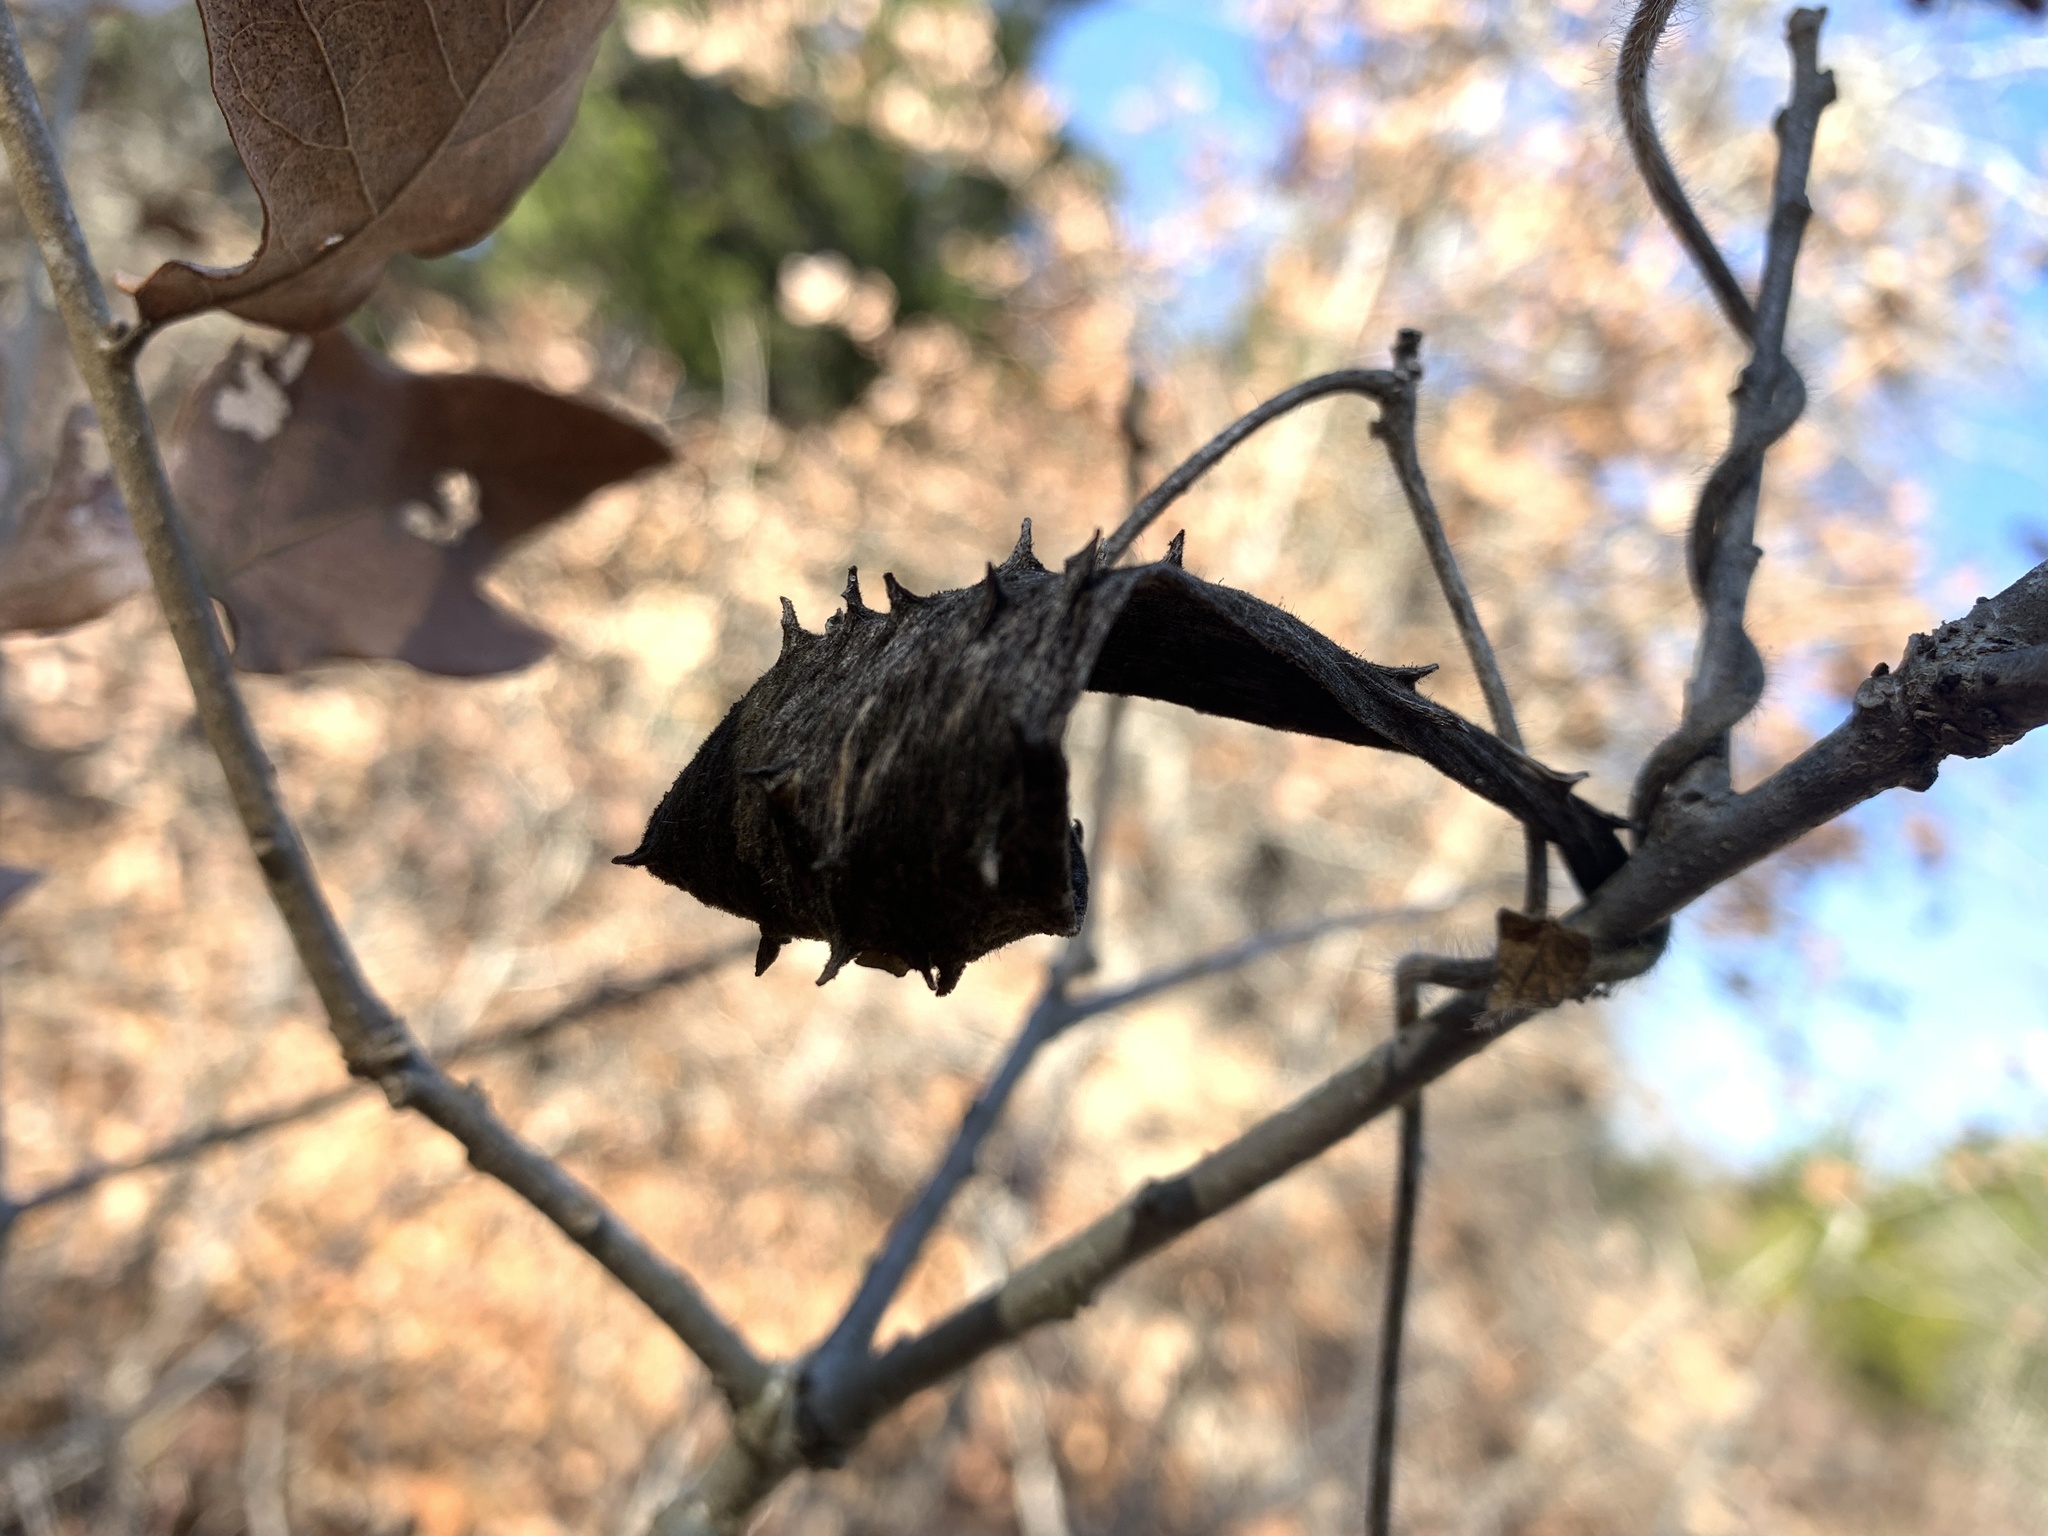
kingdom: Plantae
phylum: Tracheophyta
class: Magnoliopsida
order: Gentianales
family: Apocynaceae
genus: Dictyanthus
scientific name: Dictyanthus reticulatus
